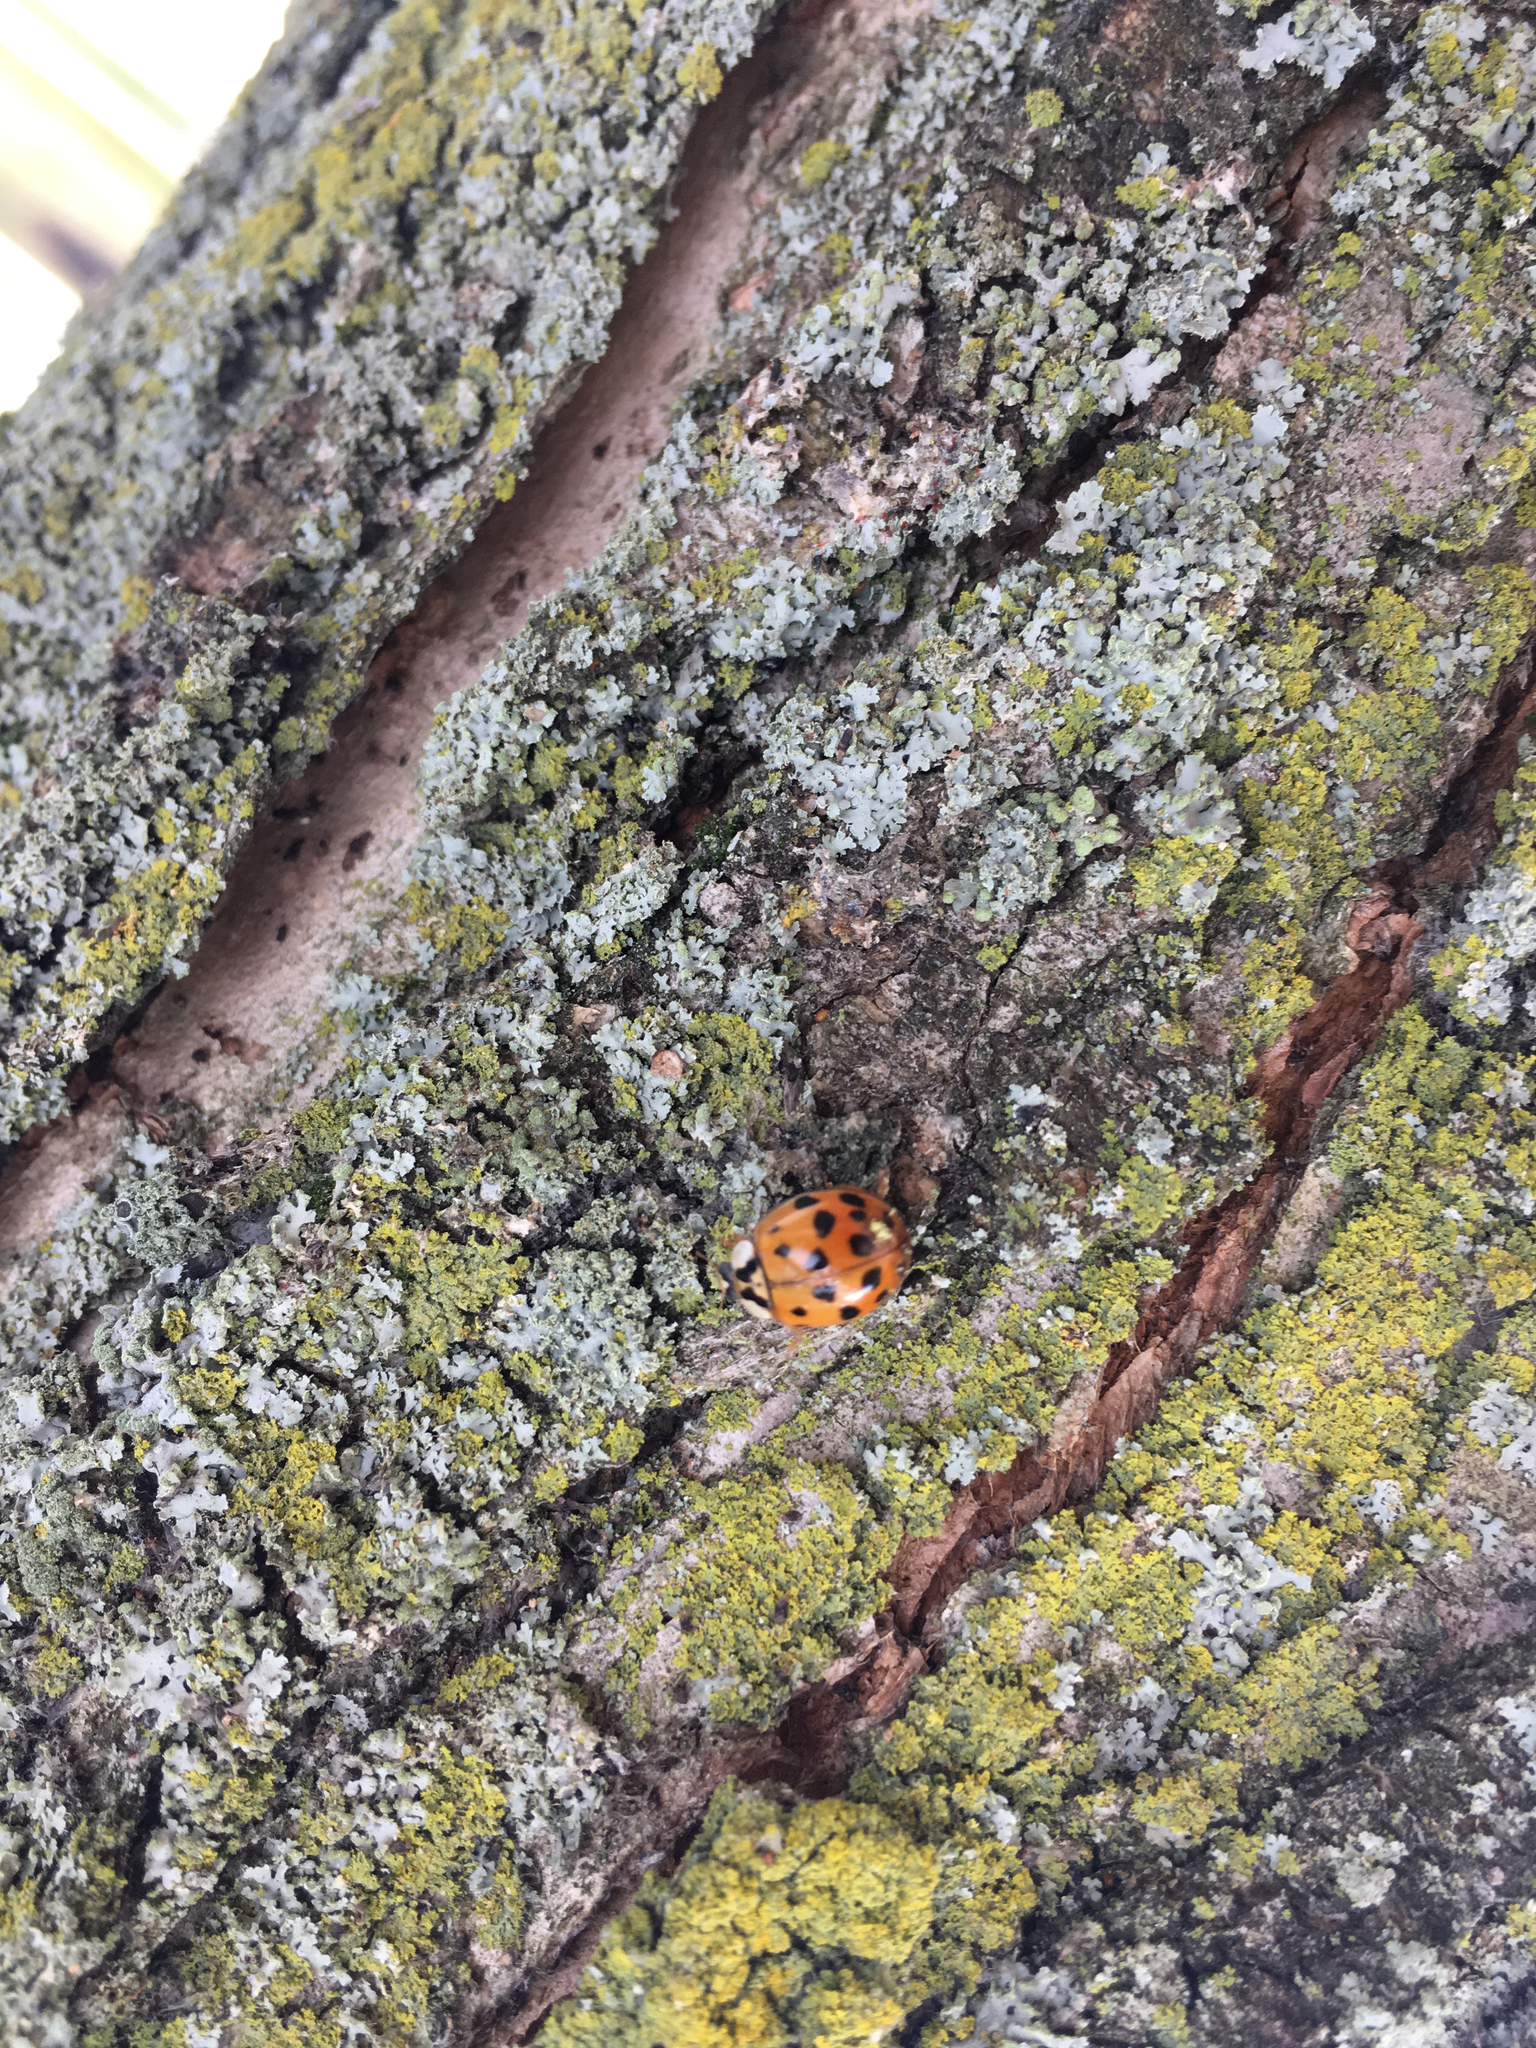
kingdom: Animalia
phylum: Arthropoda
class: Insecta
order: Coleoptera
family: Coccinellidae
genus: Harmonia
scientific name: Harmonia axyridis
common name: Harlequin ladybird
